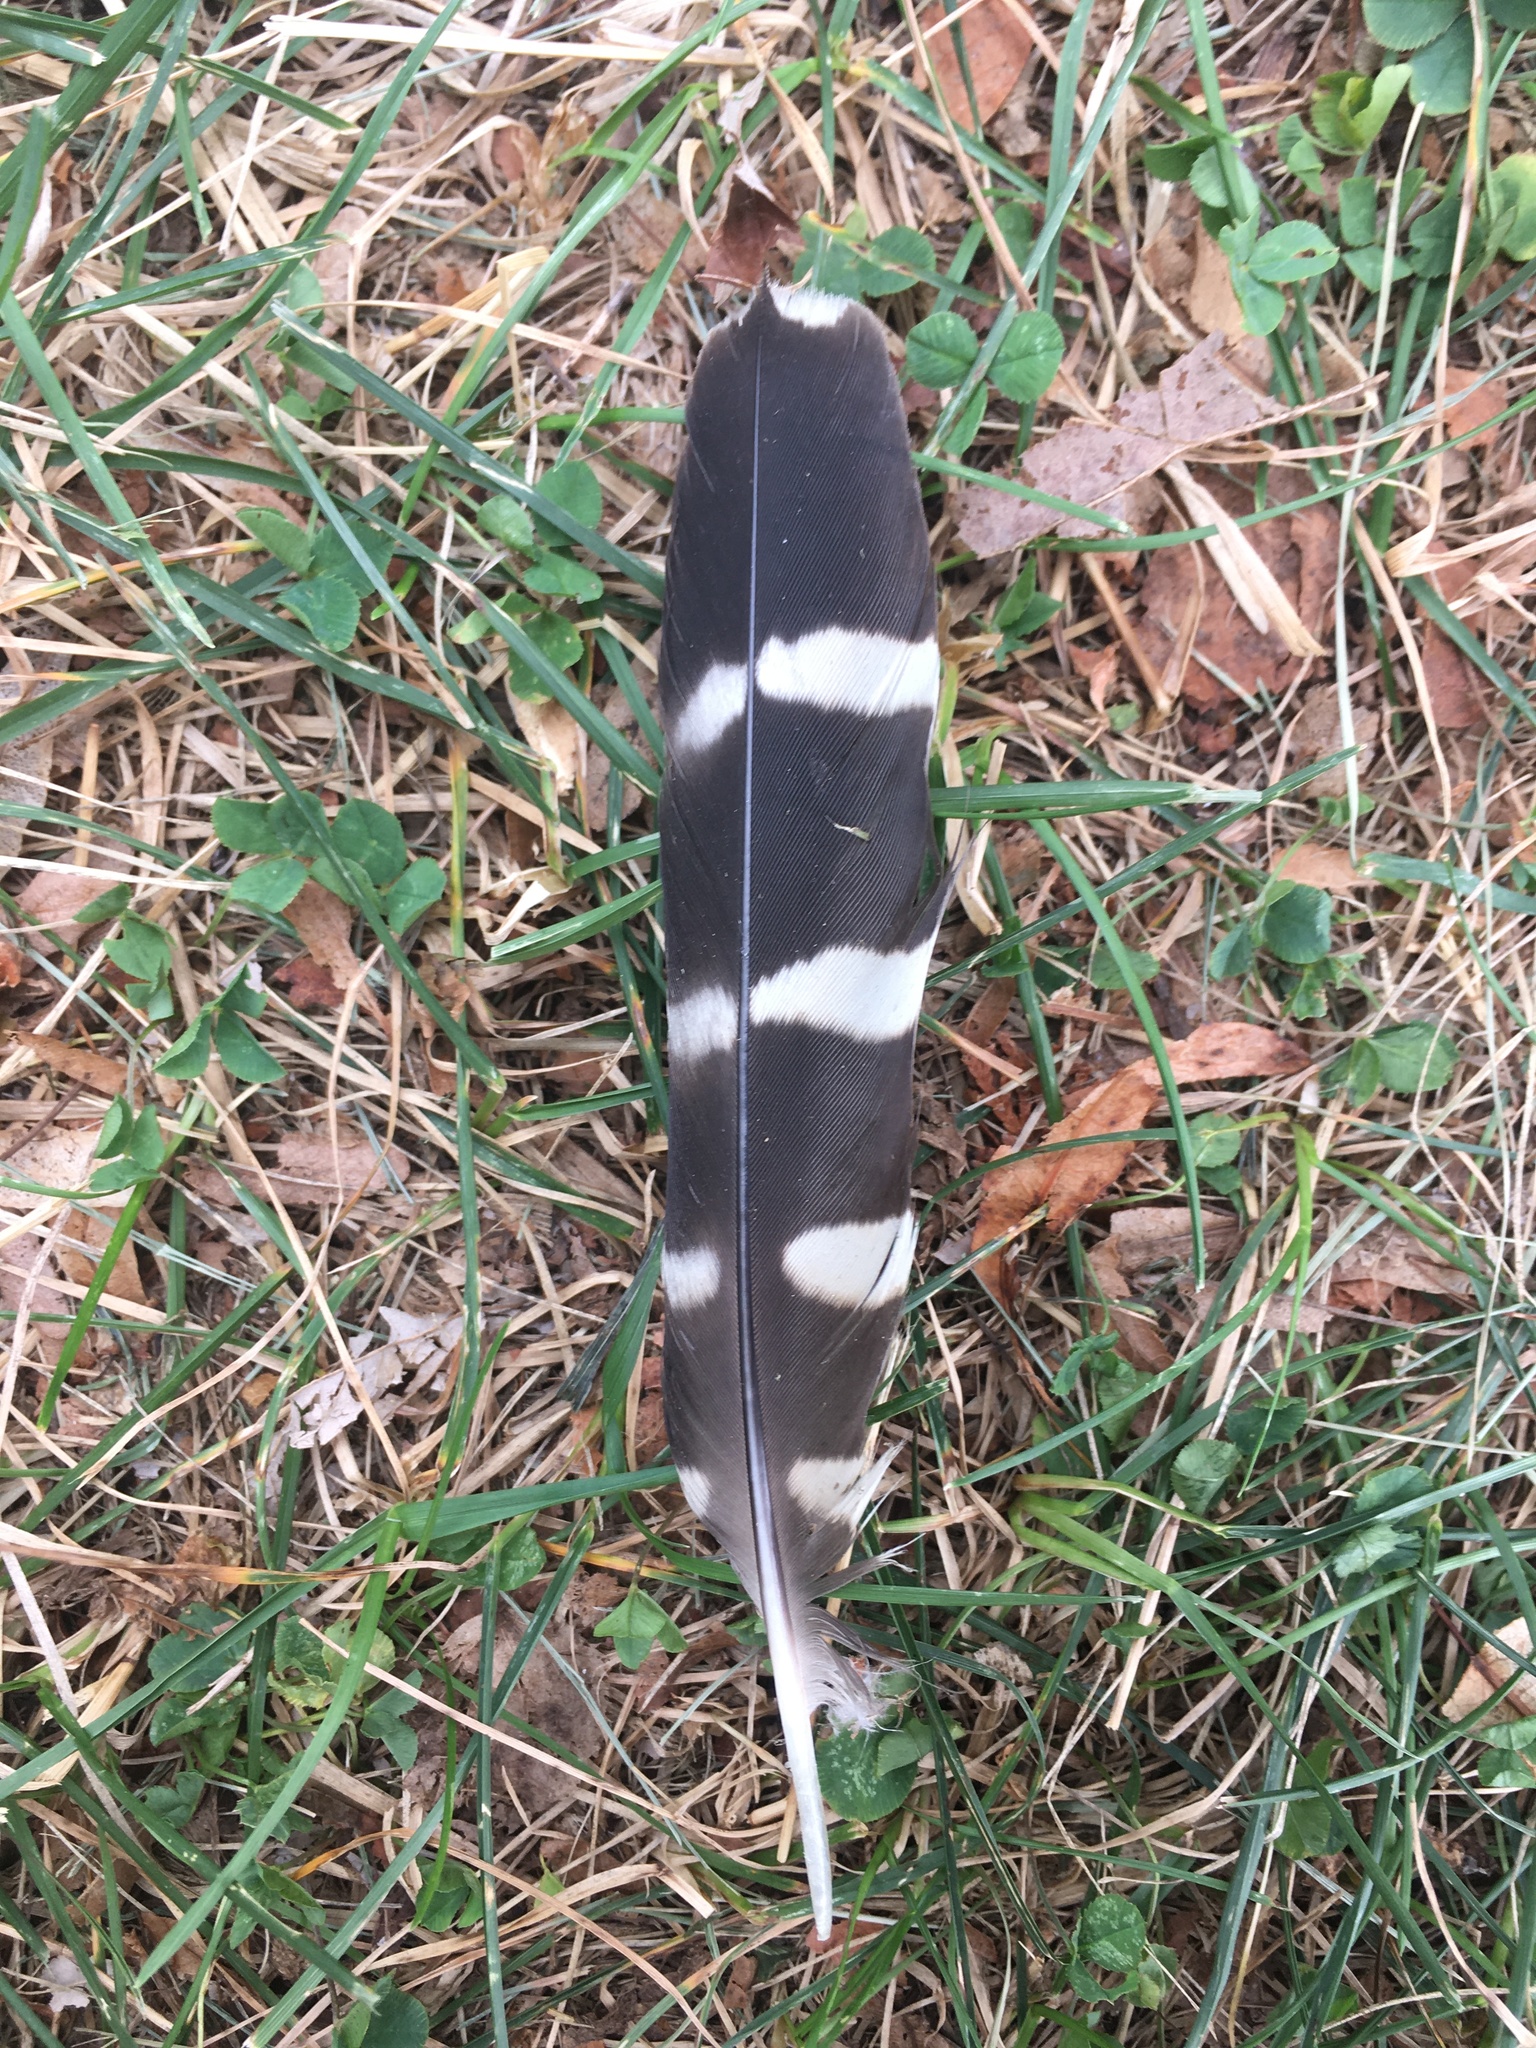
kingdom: Animalia
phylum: Chordata
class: Aves
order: Falconiformes
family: Falconidae
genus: Falco
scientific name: Falco columbarius
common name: Merlin
